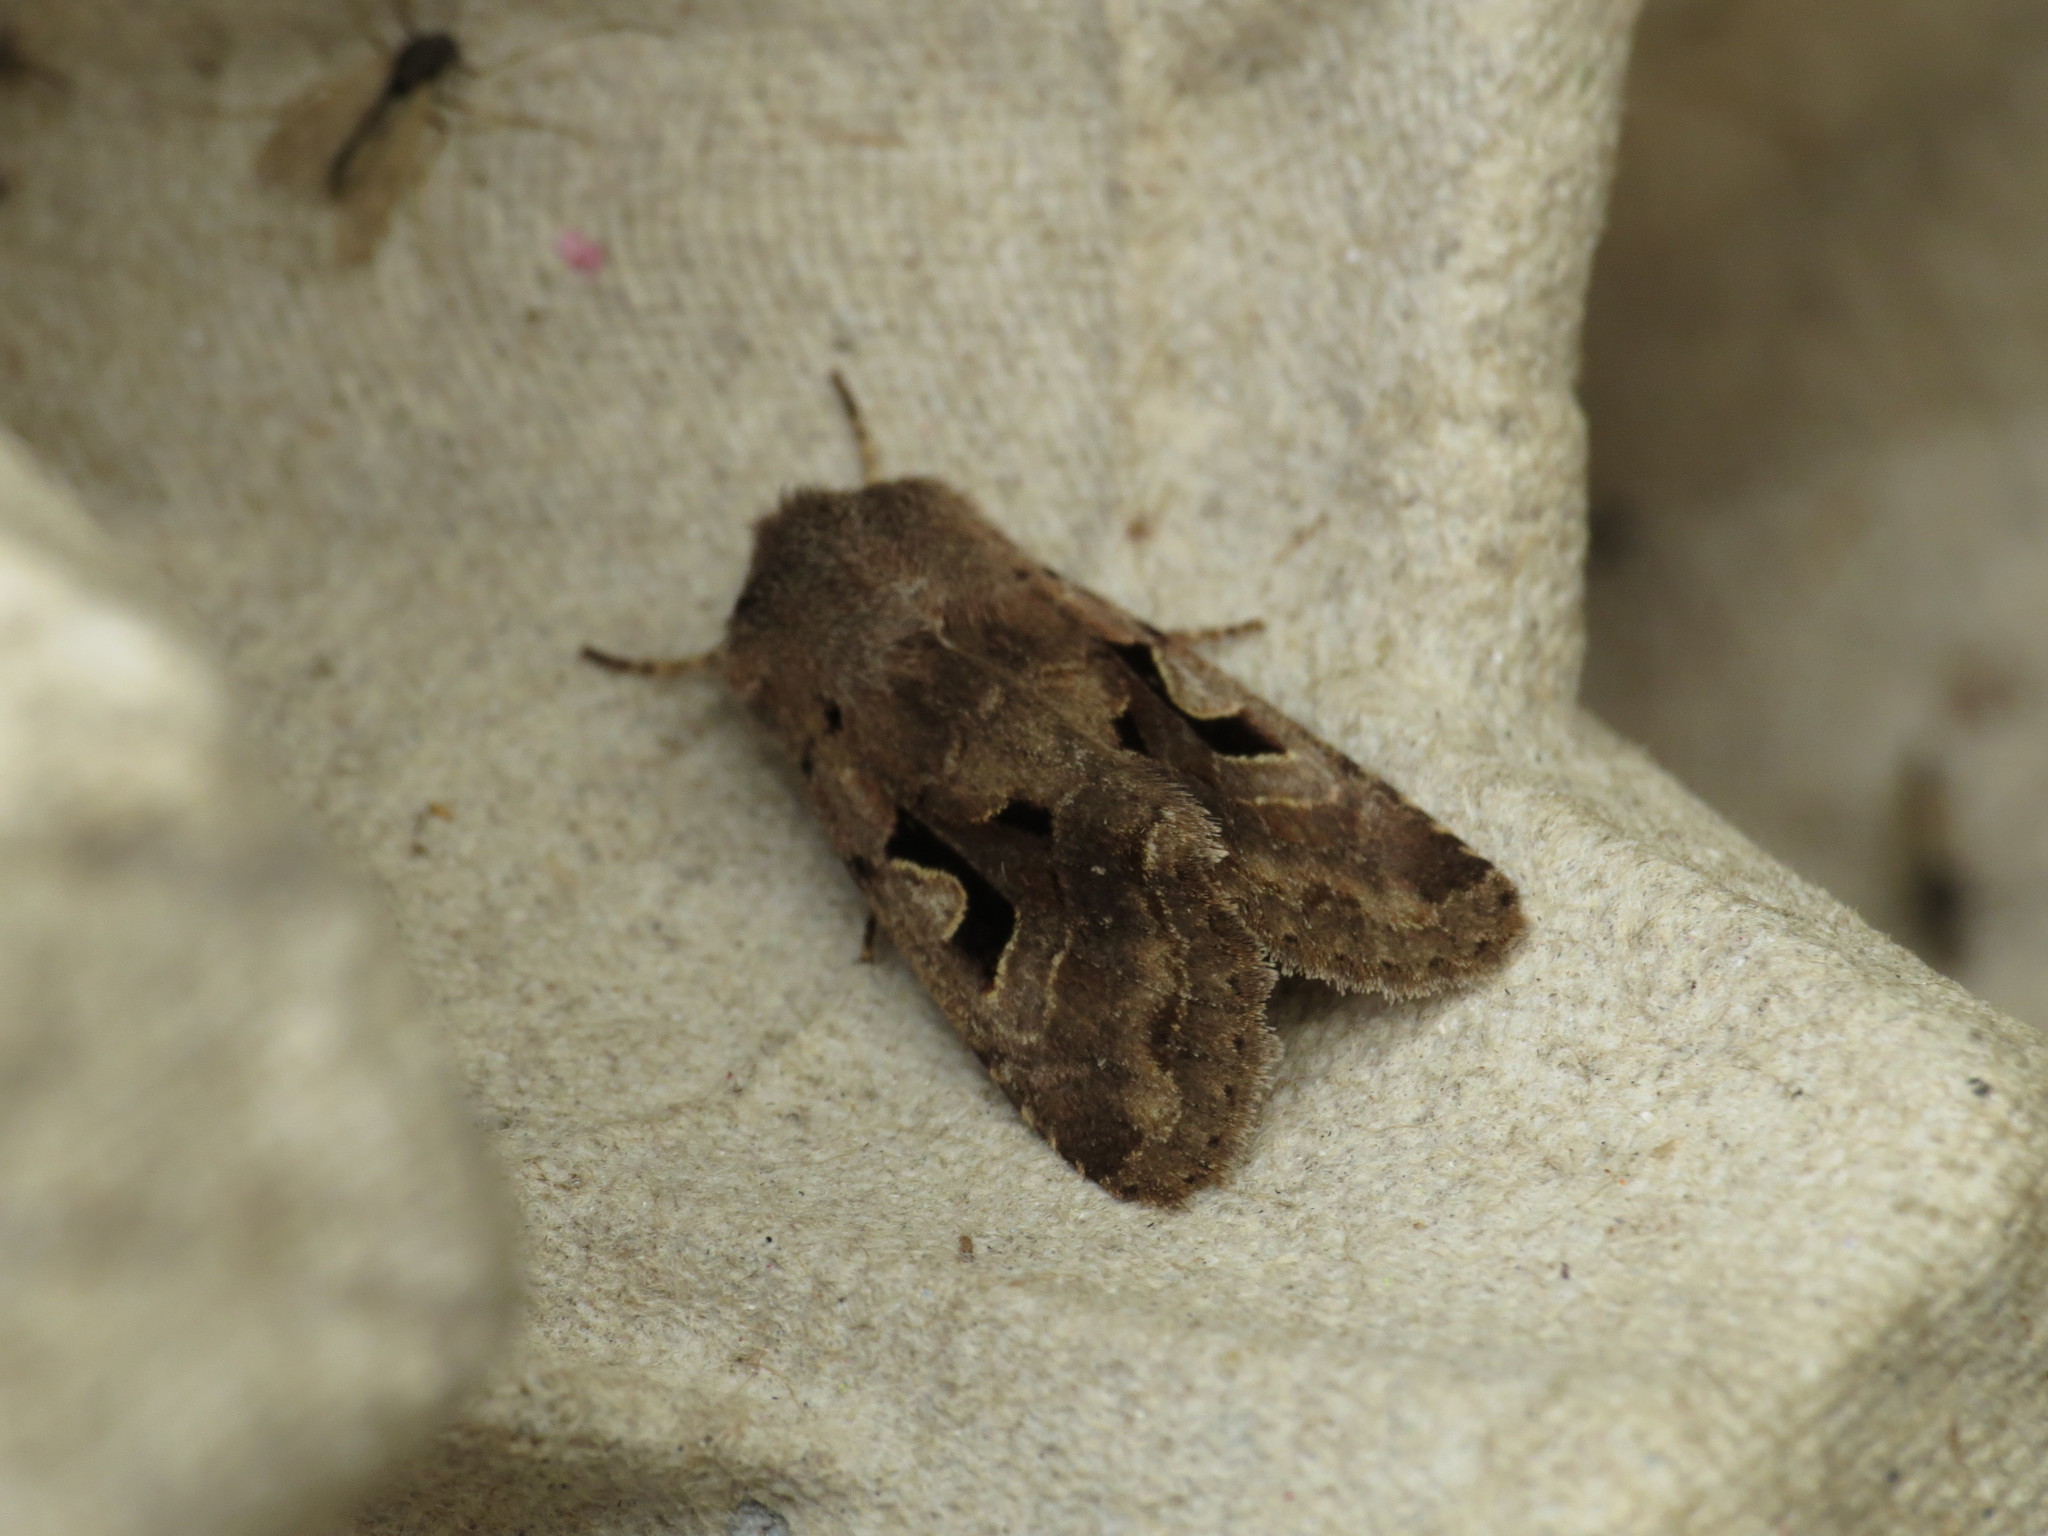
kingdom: Animalia
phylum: Arthropoda
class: Insecta
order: Lepidoptera
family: Noctuidae
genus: Orthosia
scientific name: Orthosia gothica
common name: Hebrew character
